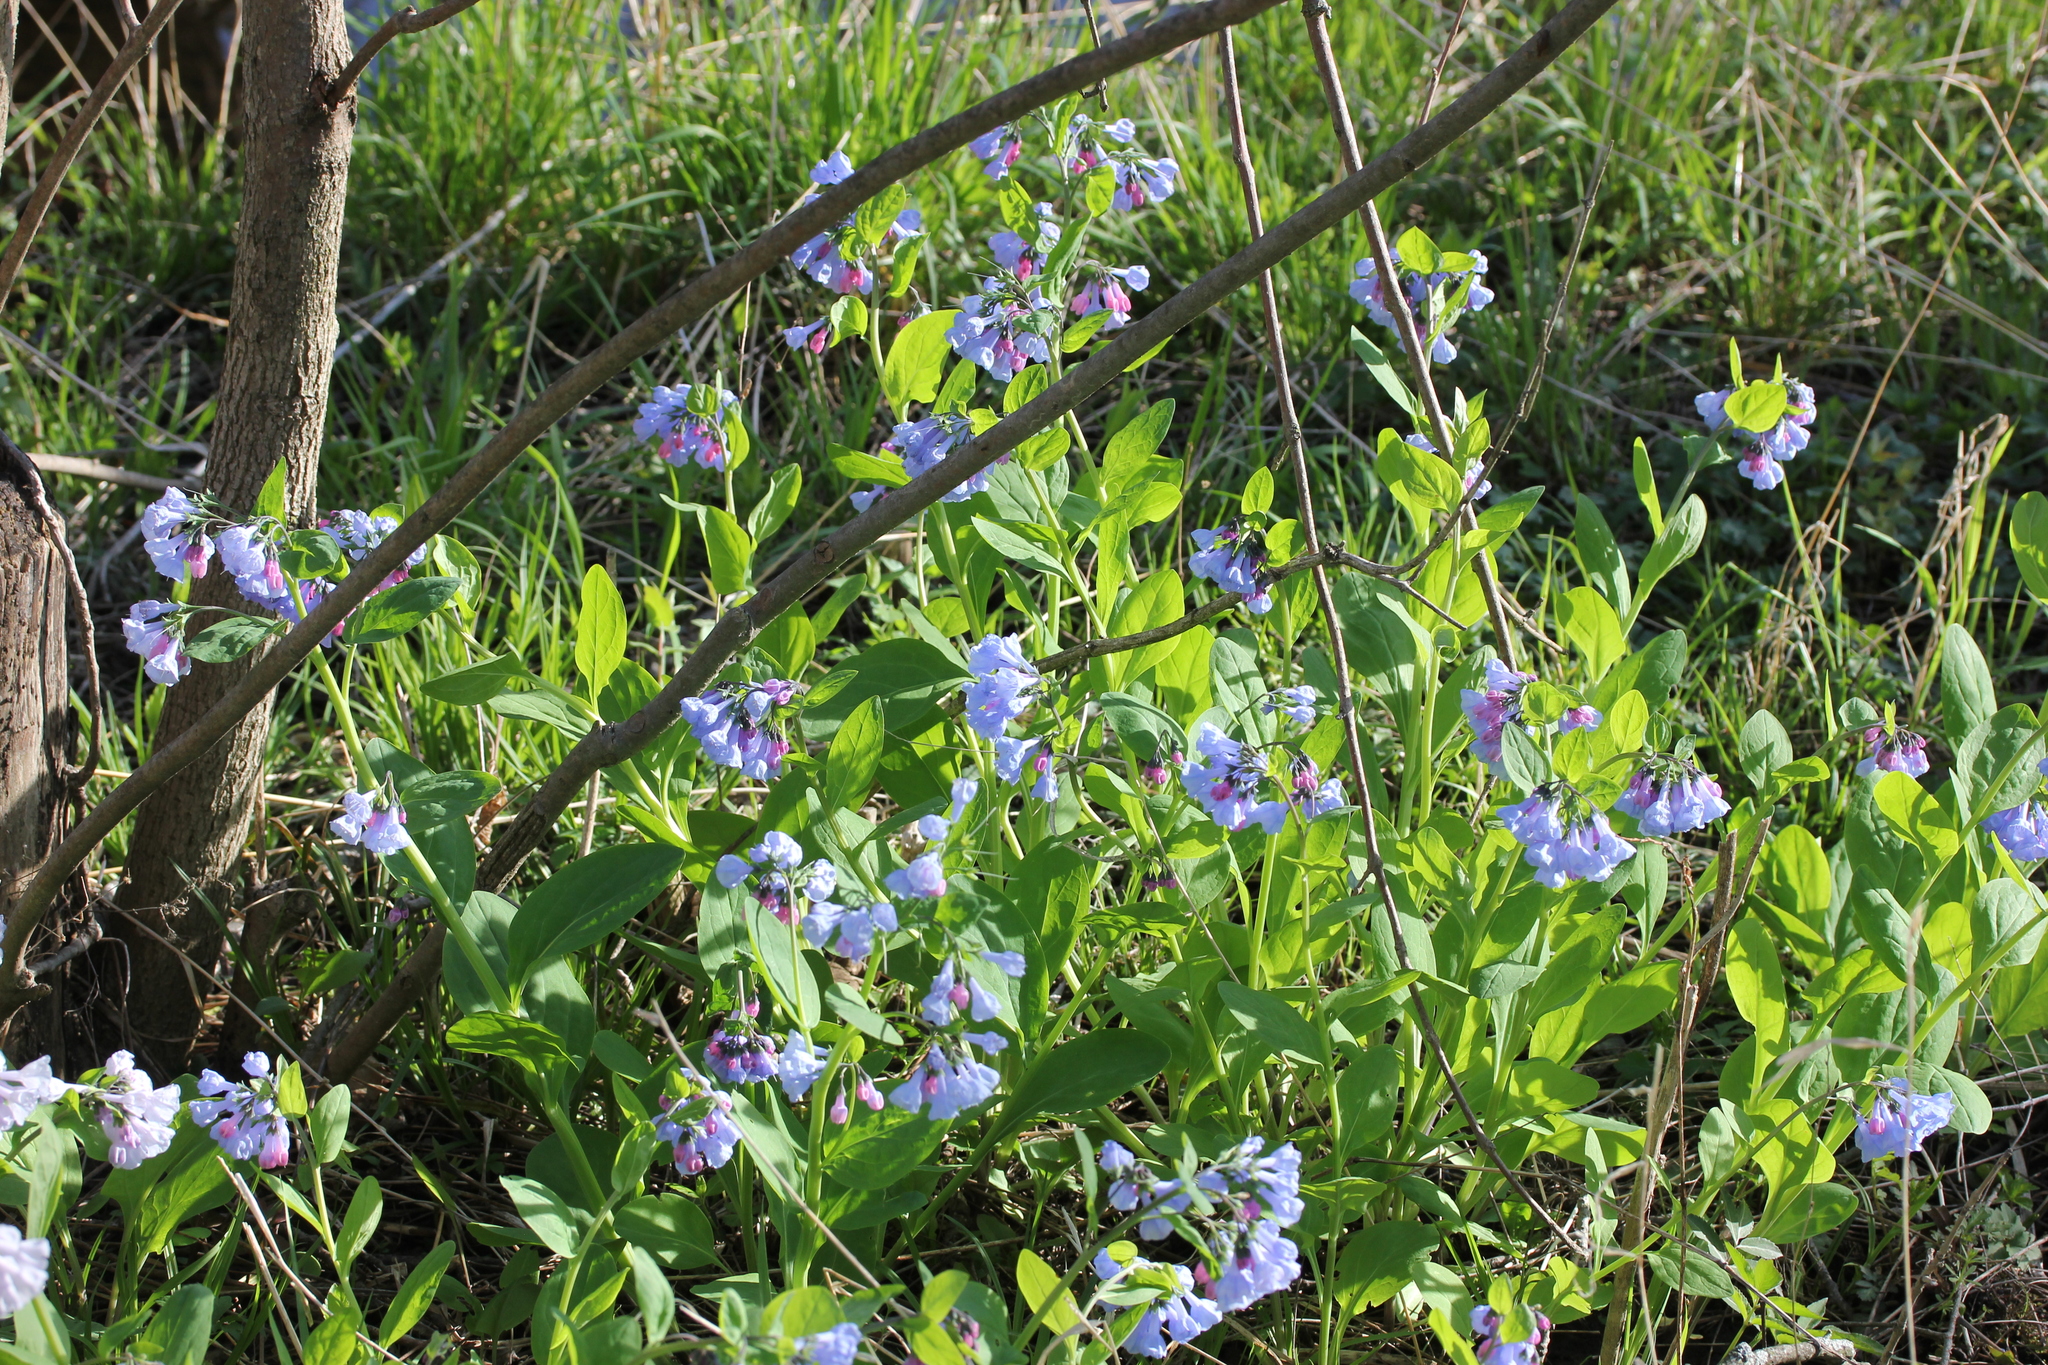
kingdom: Plantae
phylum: Tracheophyta
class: Magnoliopsida
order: Boraginales
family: Boraginaceae
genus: Mertensia
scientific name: Mertensia virginica
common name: Virginia bluebells
